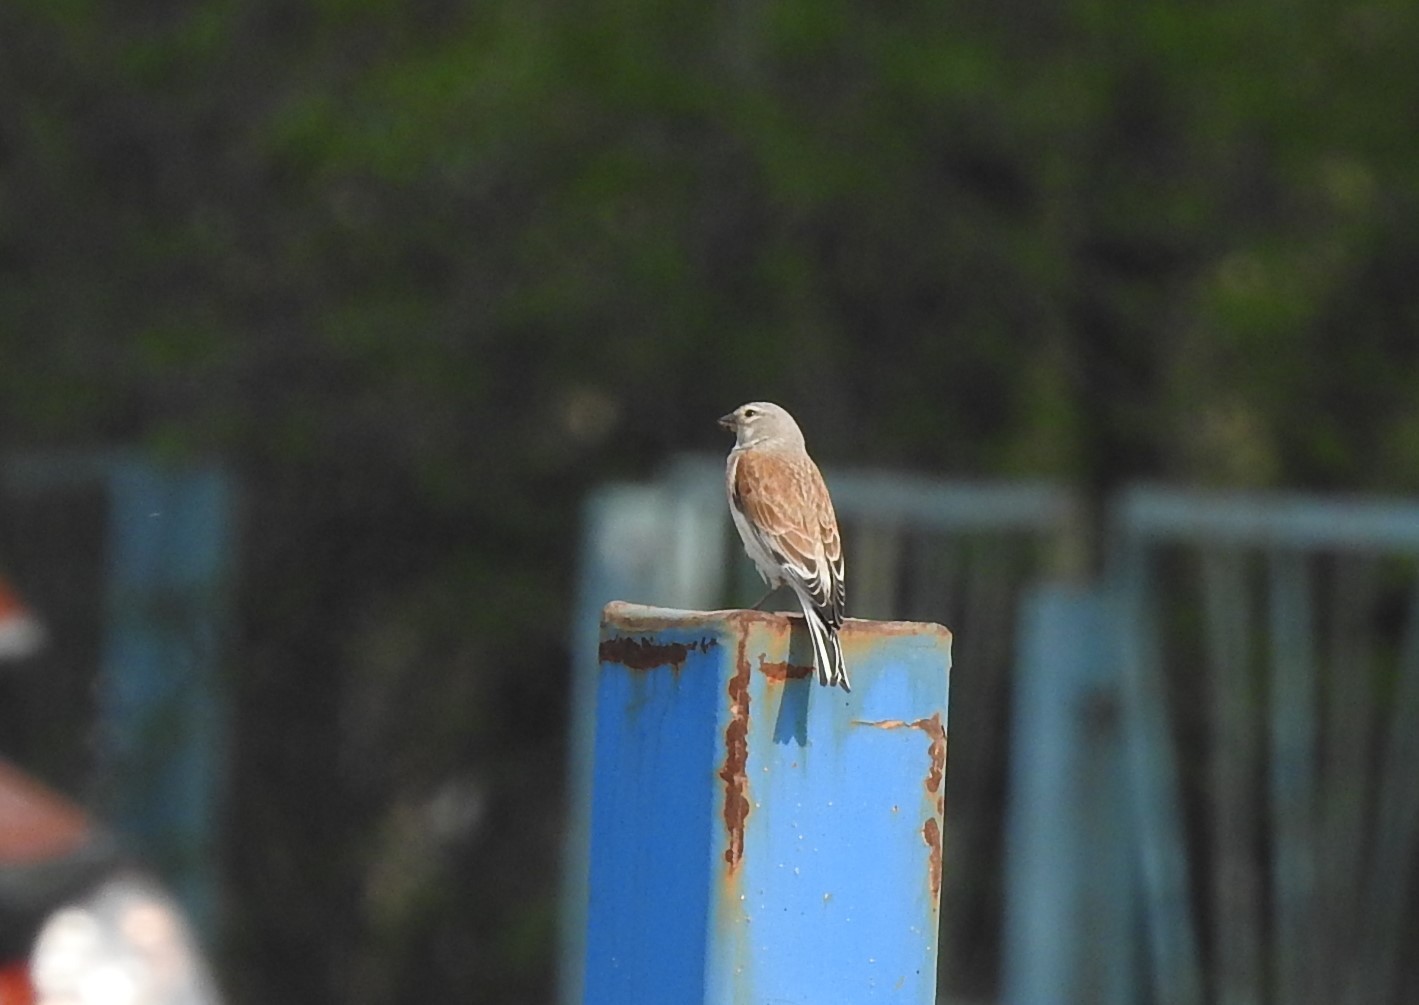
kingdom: Animalia
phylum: Chordata
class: Aves
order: Passeriformes
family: Fringillidae
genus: Linaria
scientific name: Linaria cannabina
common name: Common linnet
